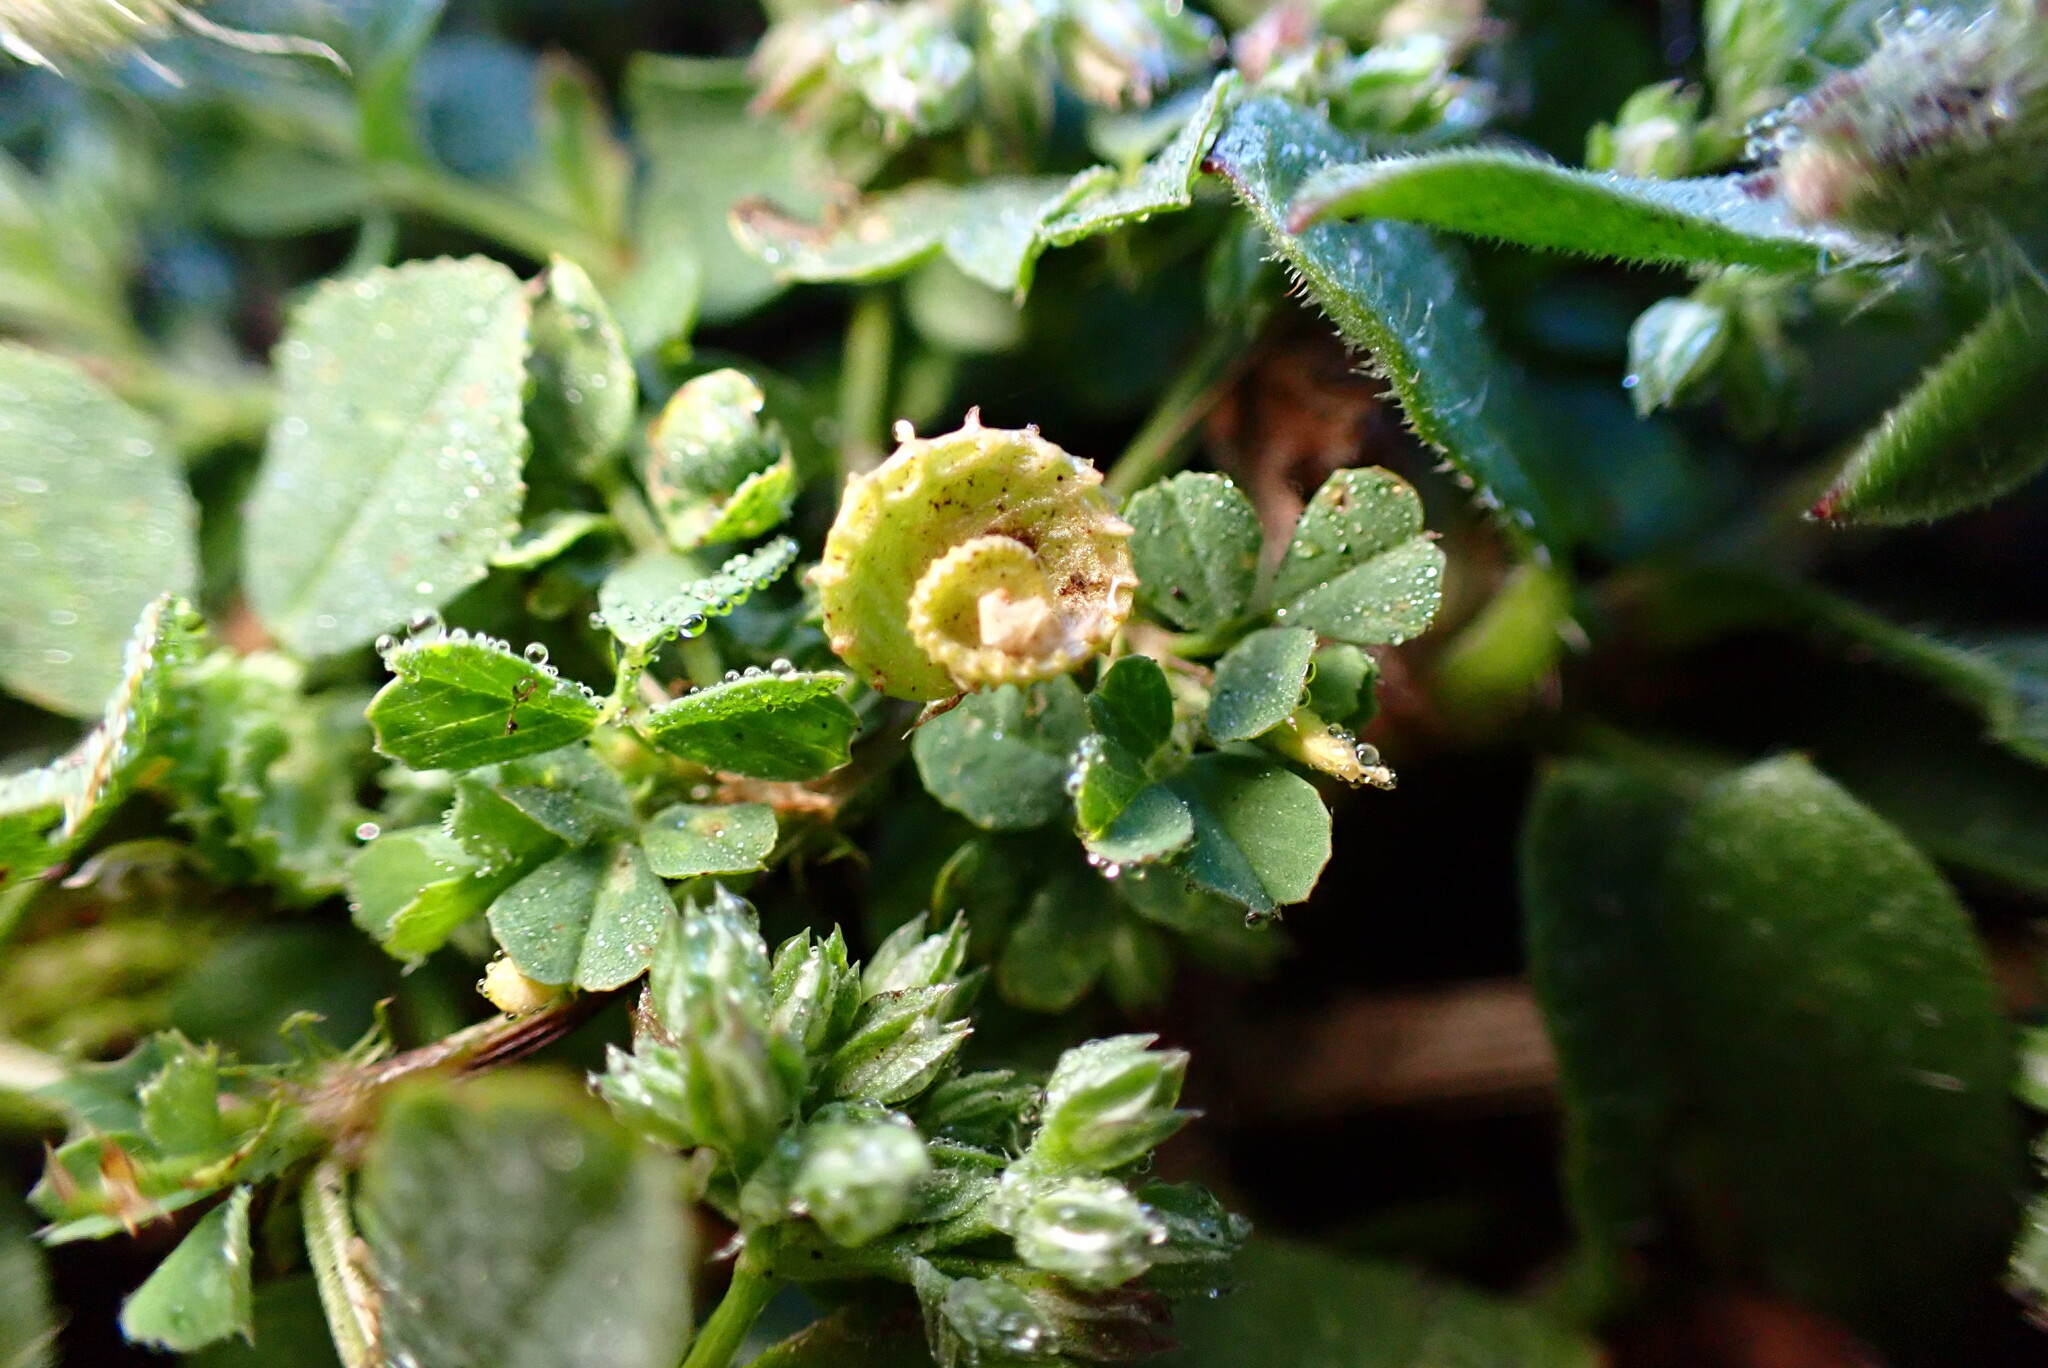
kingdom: Plantae
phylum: Tracheophyta
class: Magnoliopsida
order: Fabales
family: Fabaceae
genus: Medicago
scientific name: Medicago polymorpha
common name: Burclover
